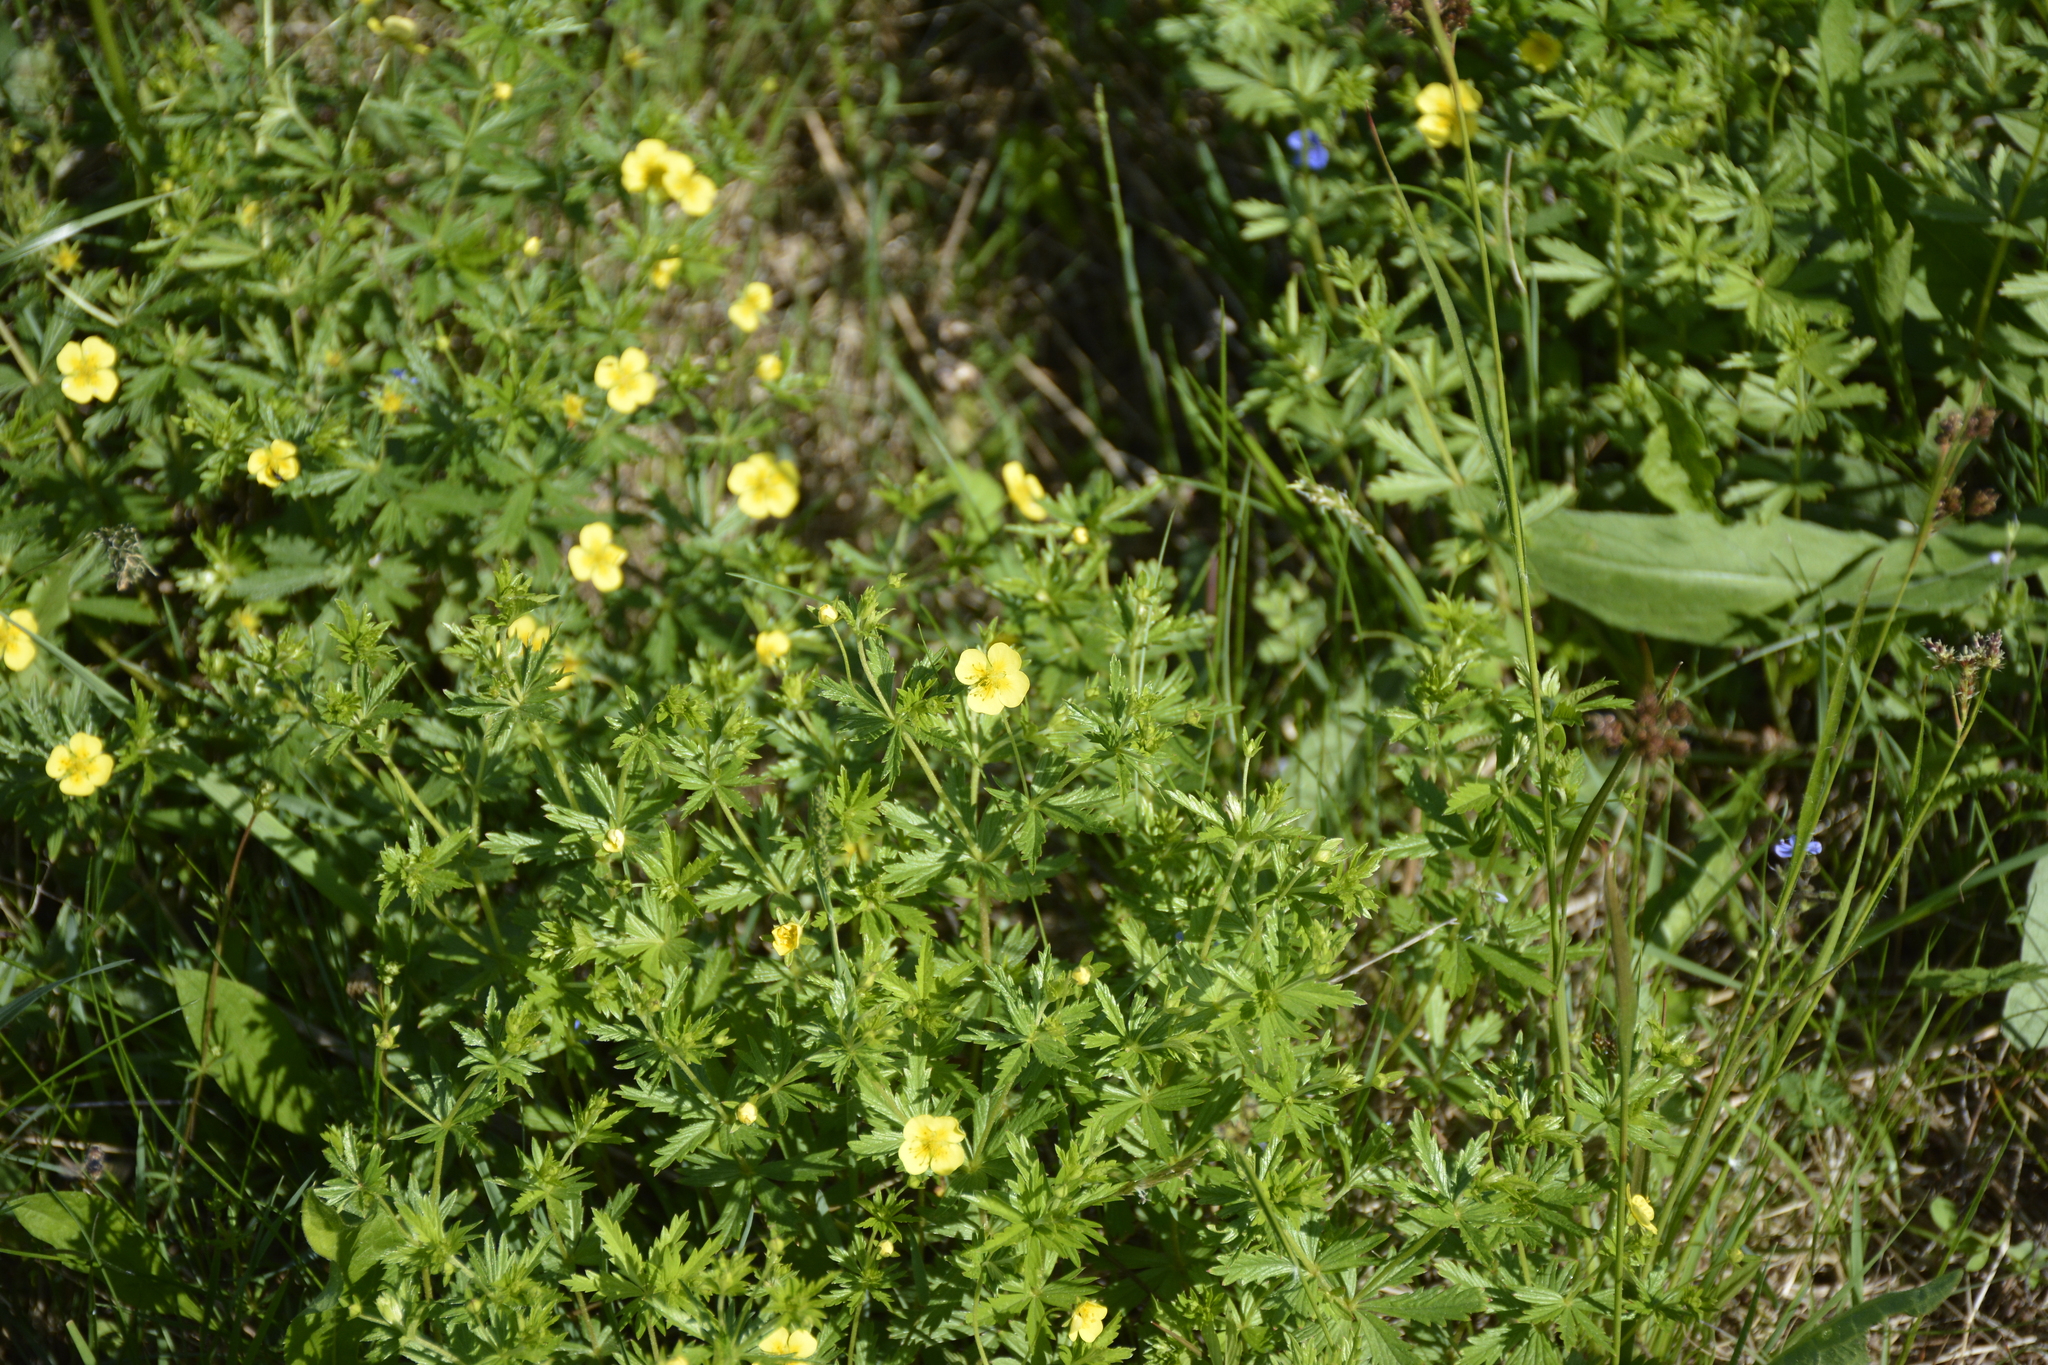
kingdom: Plantae
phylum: Tracheophyta
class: Magnoliopsida
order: Rosales
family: Rosaceae
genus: Potentilla
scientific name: Potentilla erecta
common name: Tormentil
